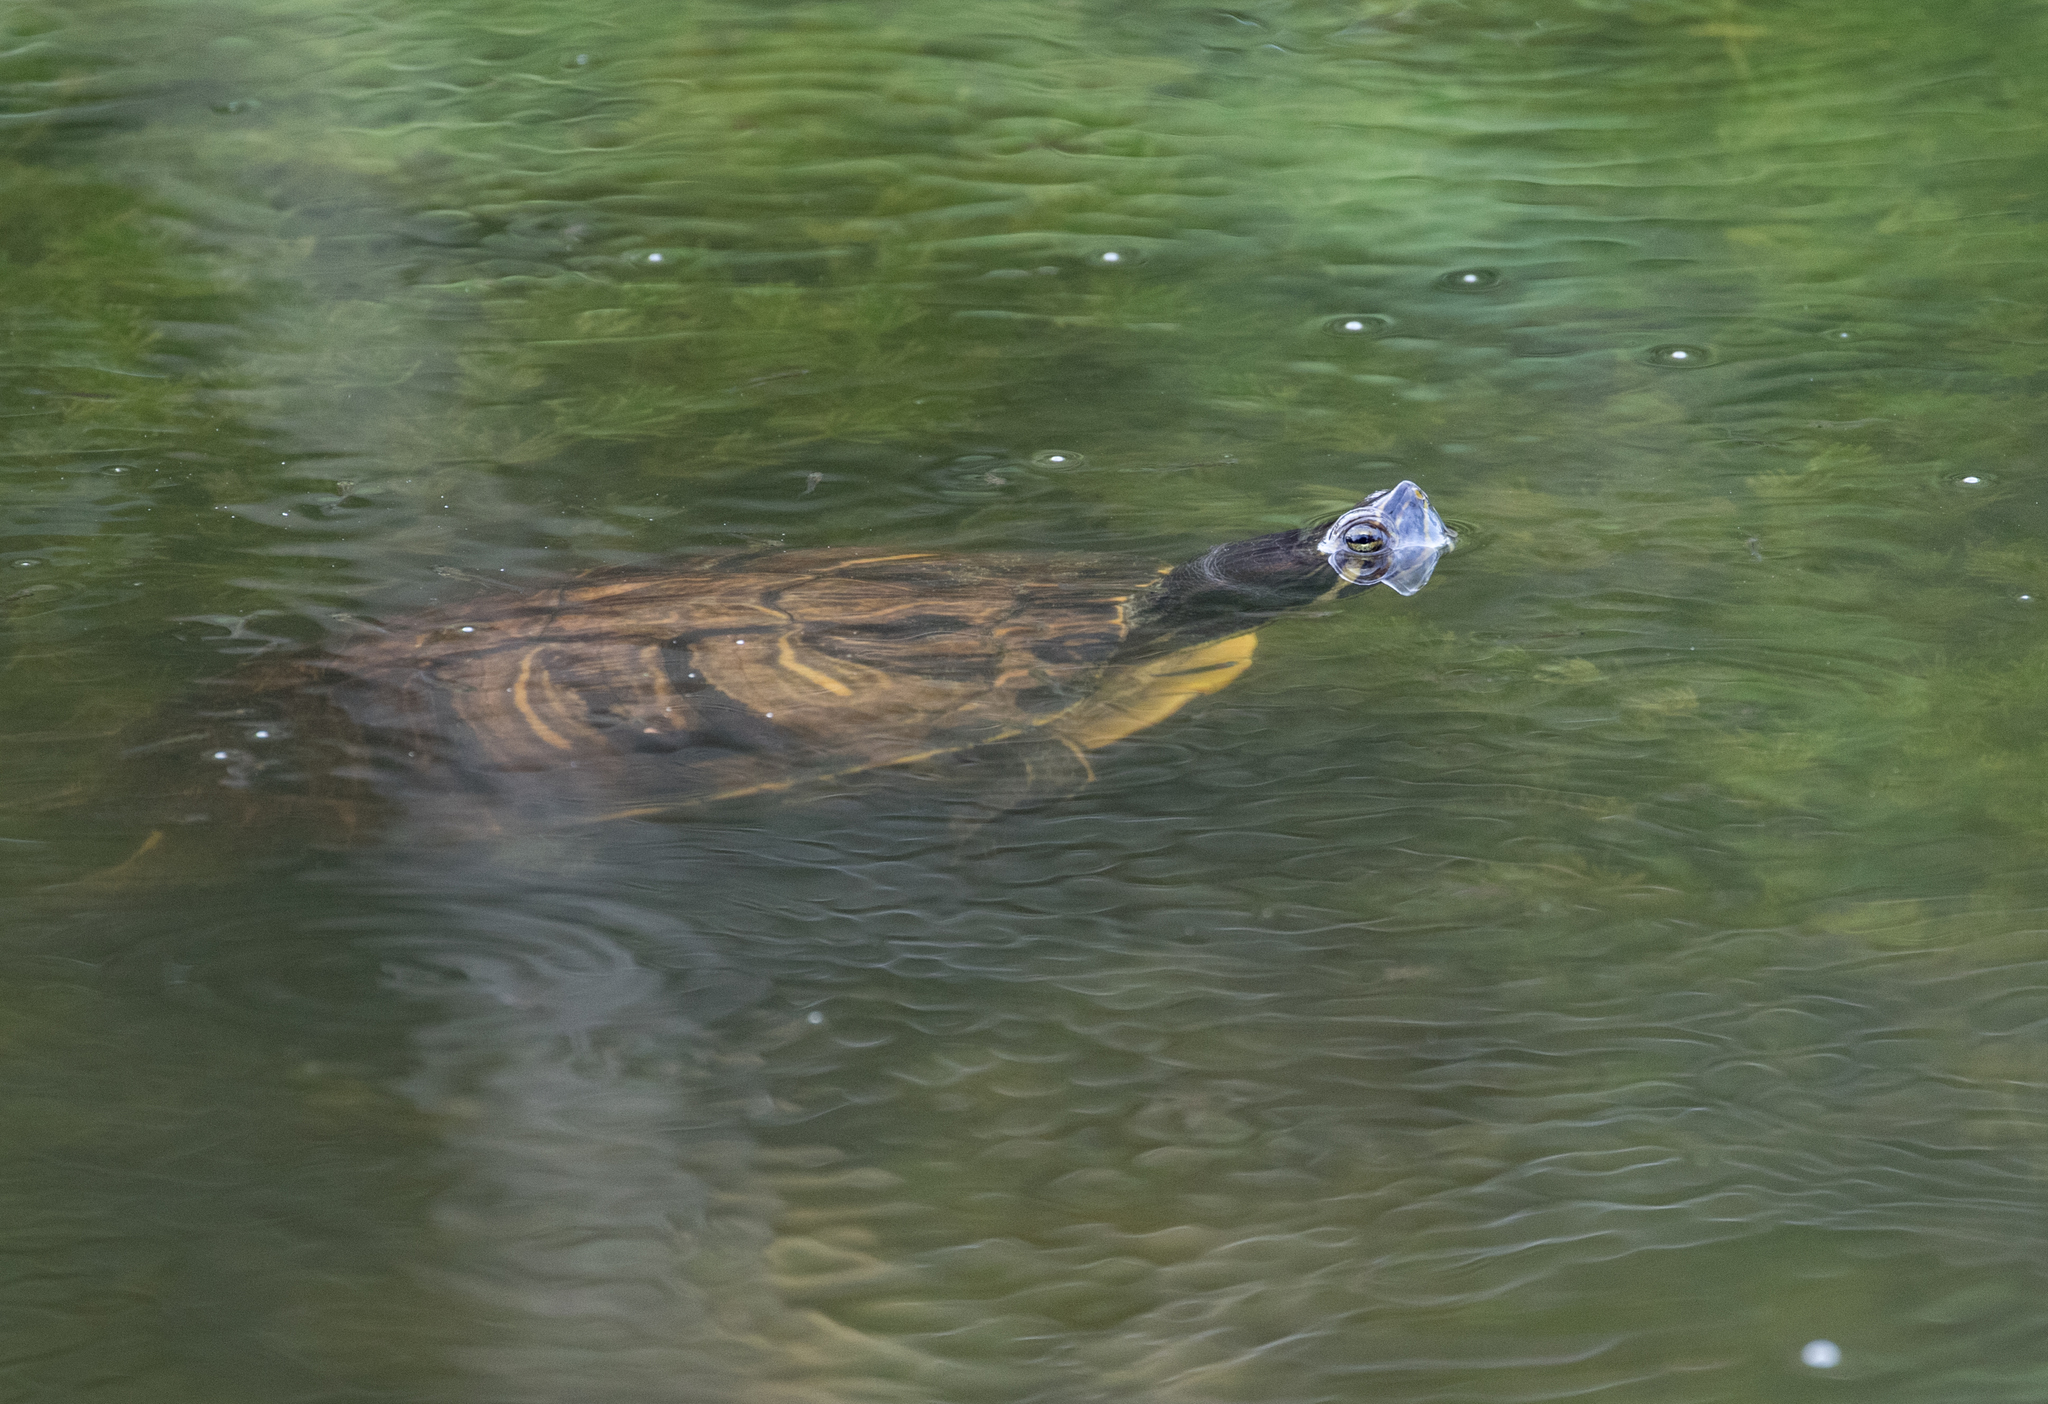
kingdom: Animalia
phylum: Chordata
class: Testudines
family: Emydidae
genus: Trachemys
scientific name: Trachemys scripta
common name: Slider
